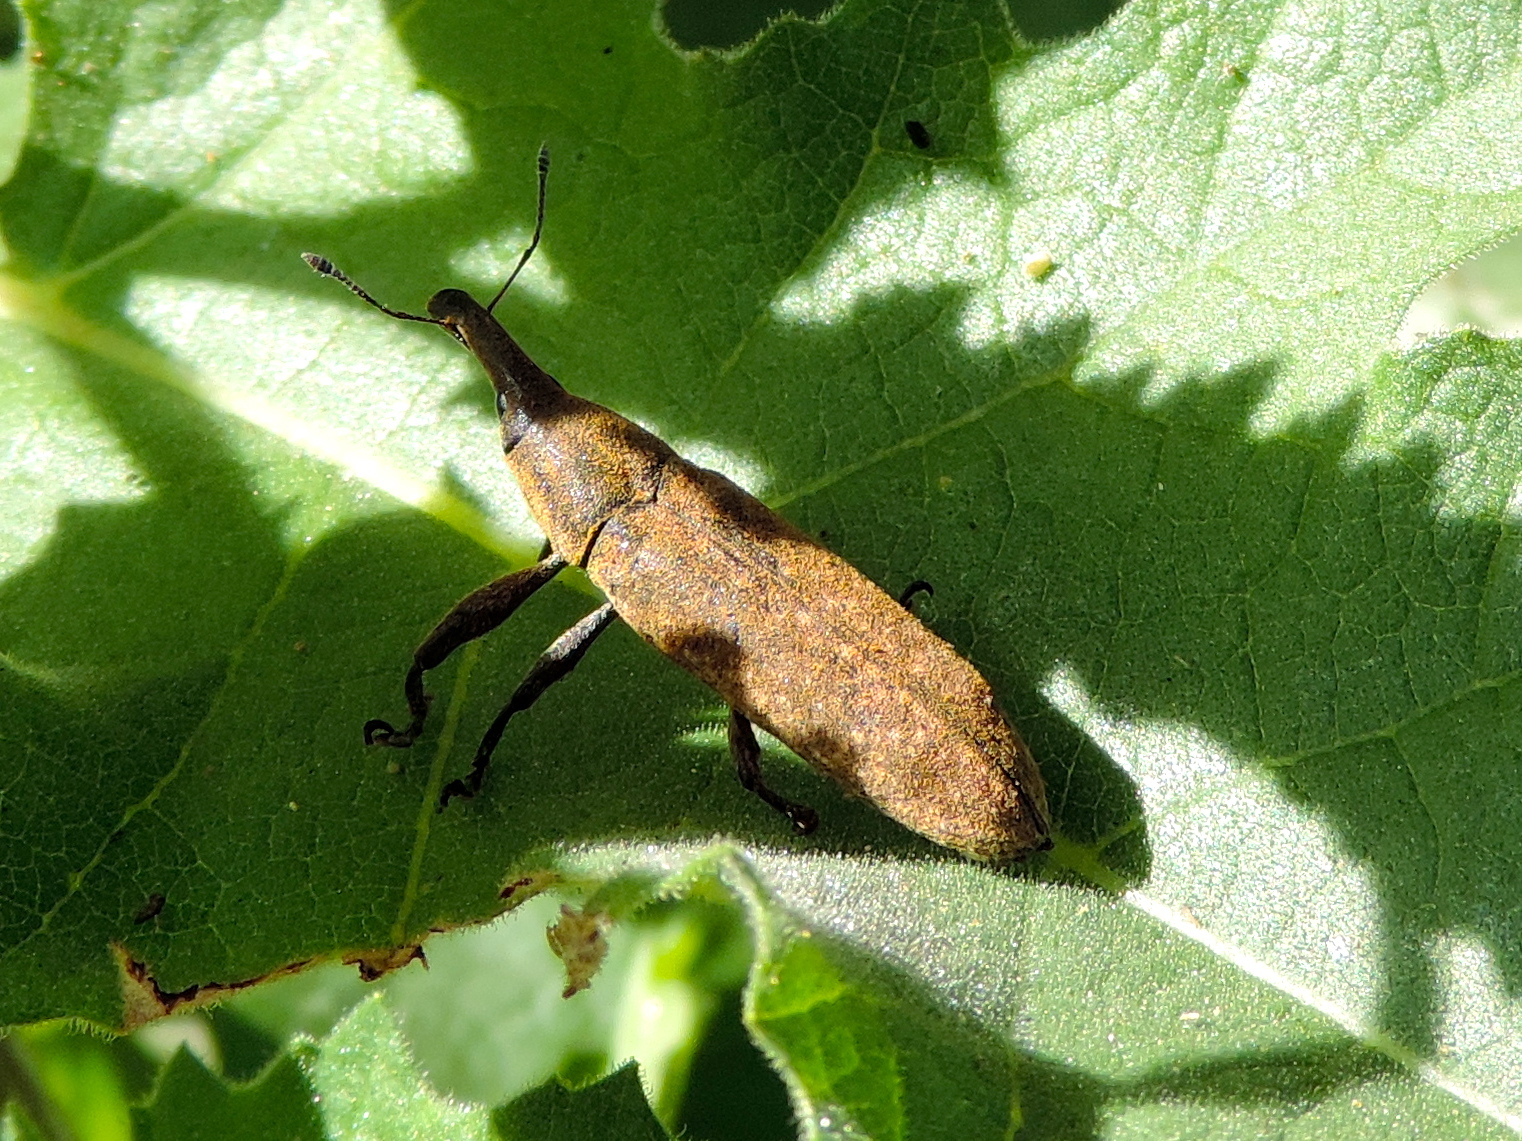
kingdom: Animalia
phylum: Arthropoda
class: Insecta
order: Coleoptera
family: Curculionidae
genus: Lixus
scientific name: Lixus
